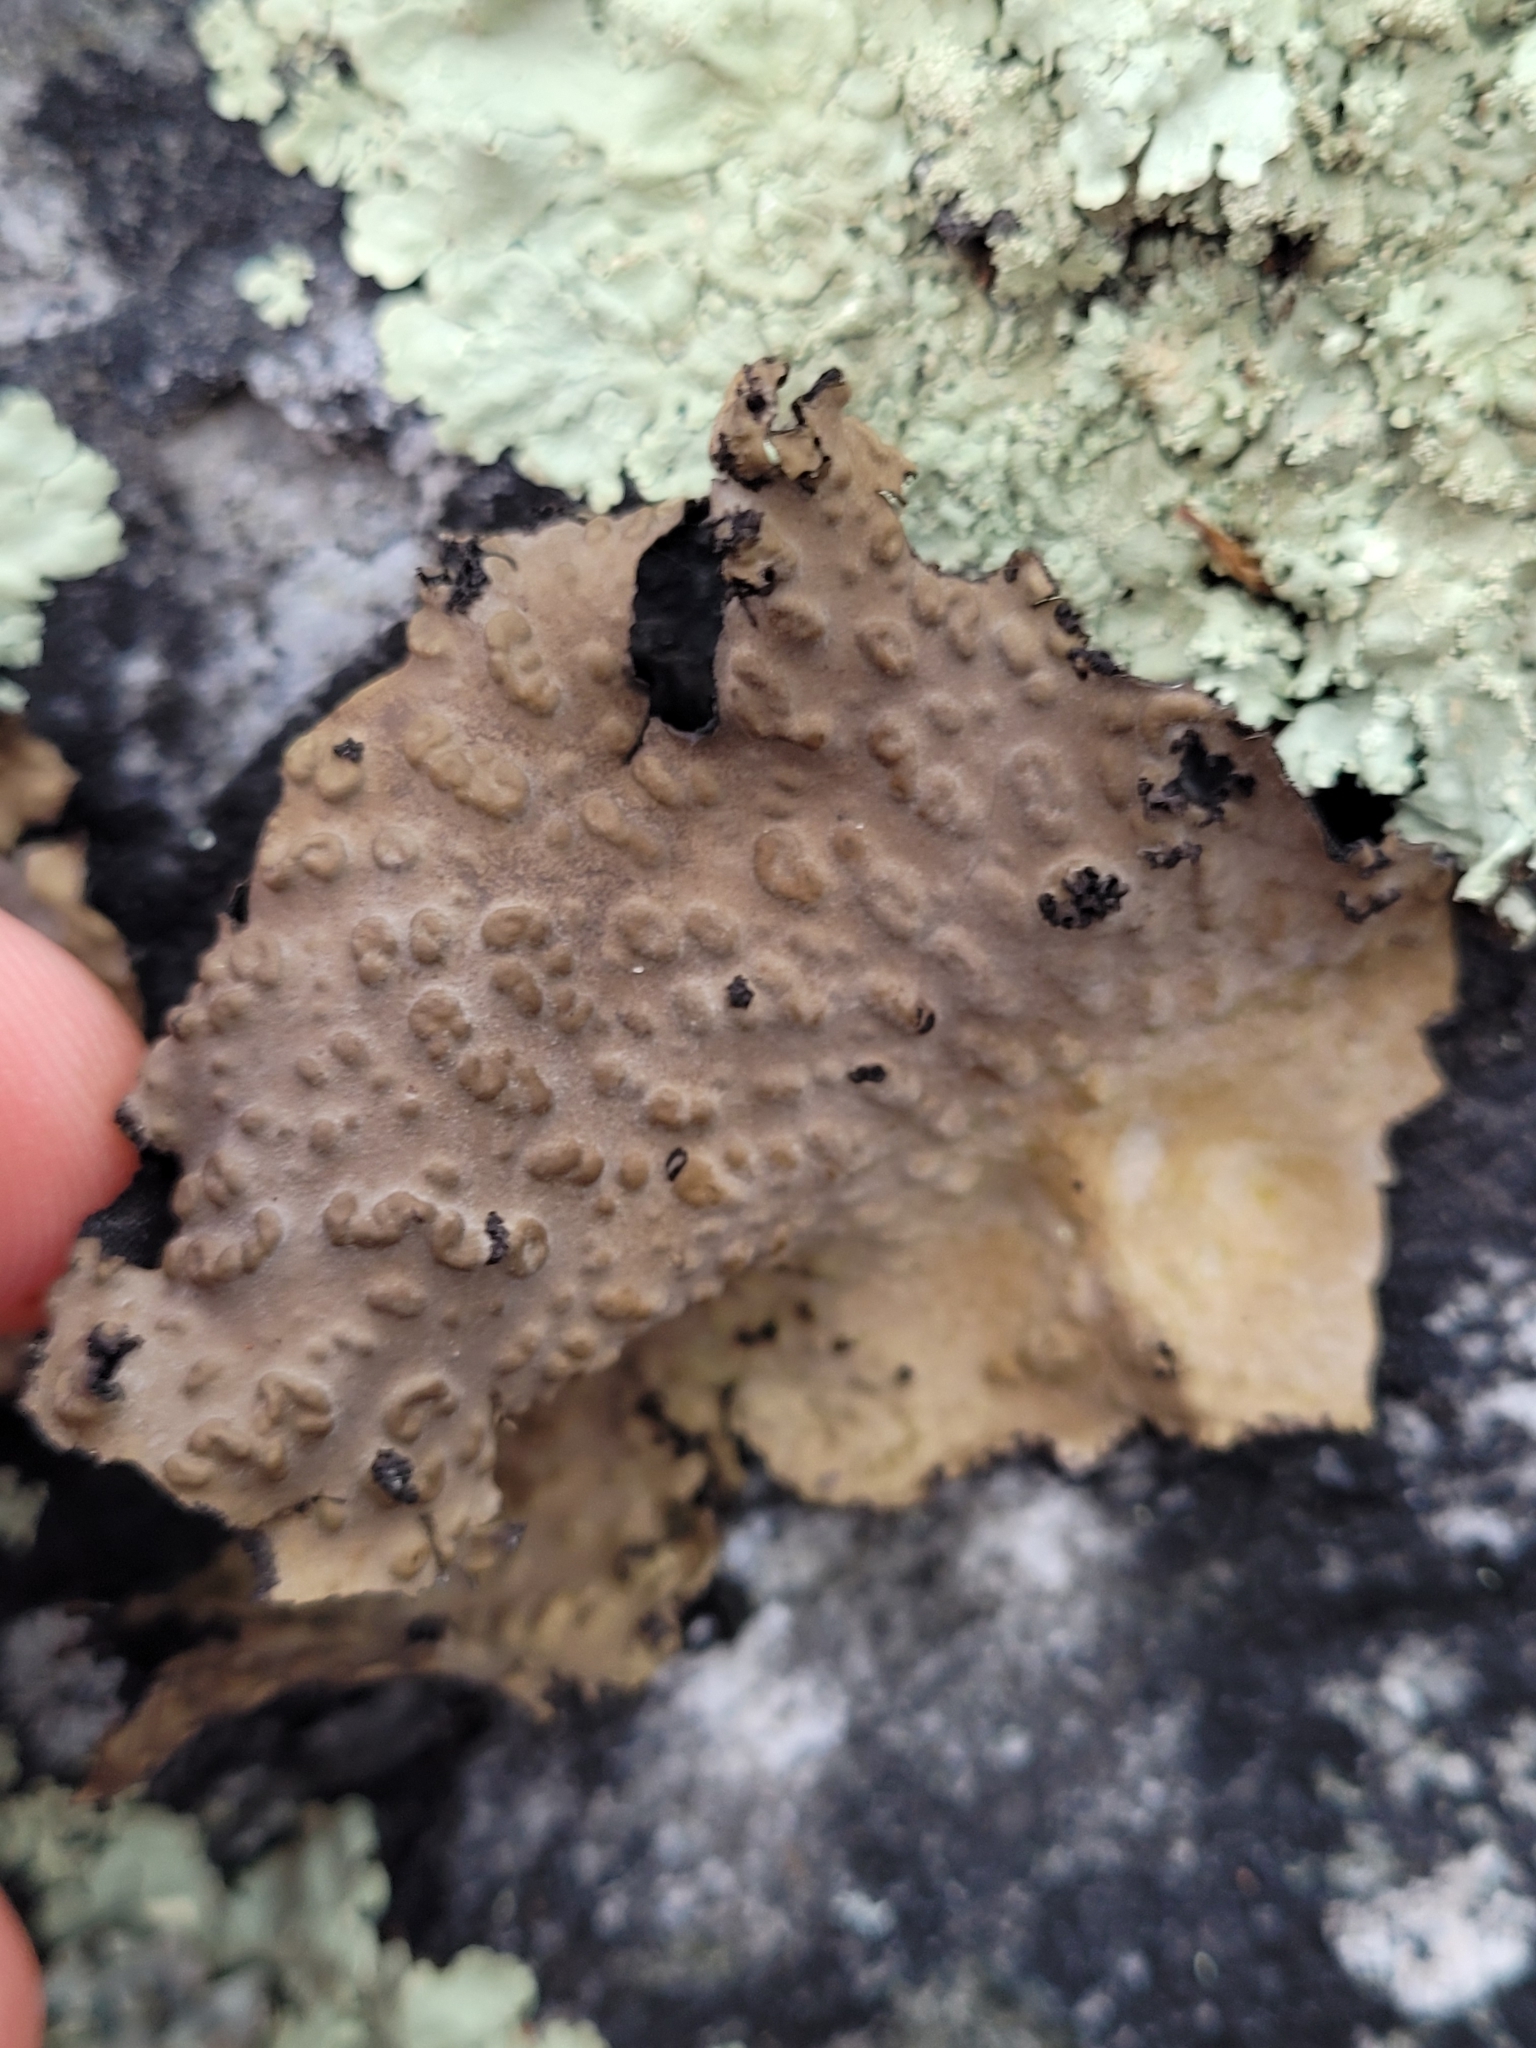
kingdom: Fungi
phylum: Ascomycota
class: Lecanoromycetes
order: Umbilicariales
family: Umbilicariaceae
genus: Lasallia
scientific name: Lasallia pensylvanica
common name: Blackened toadskin lichen
